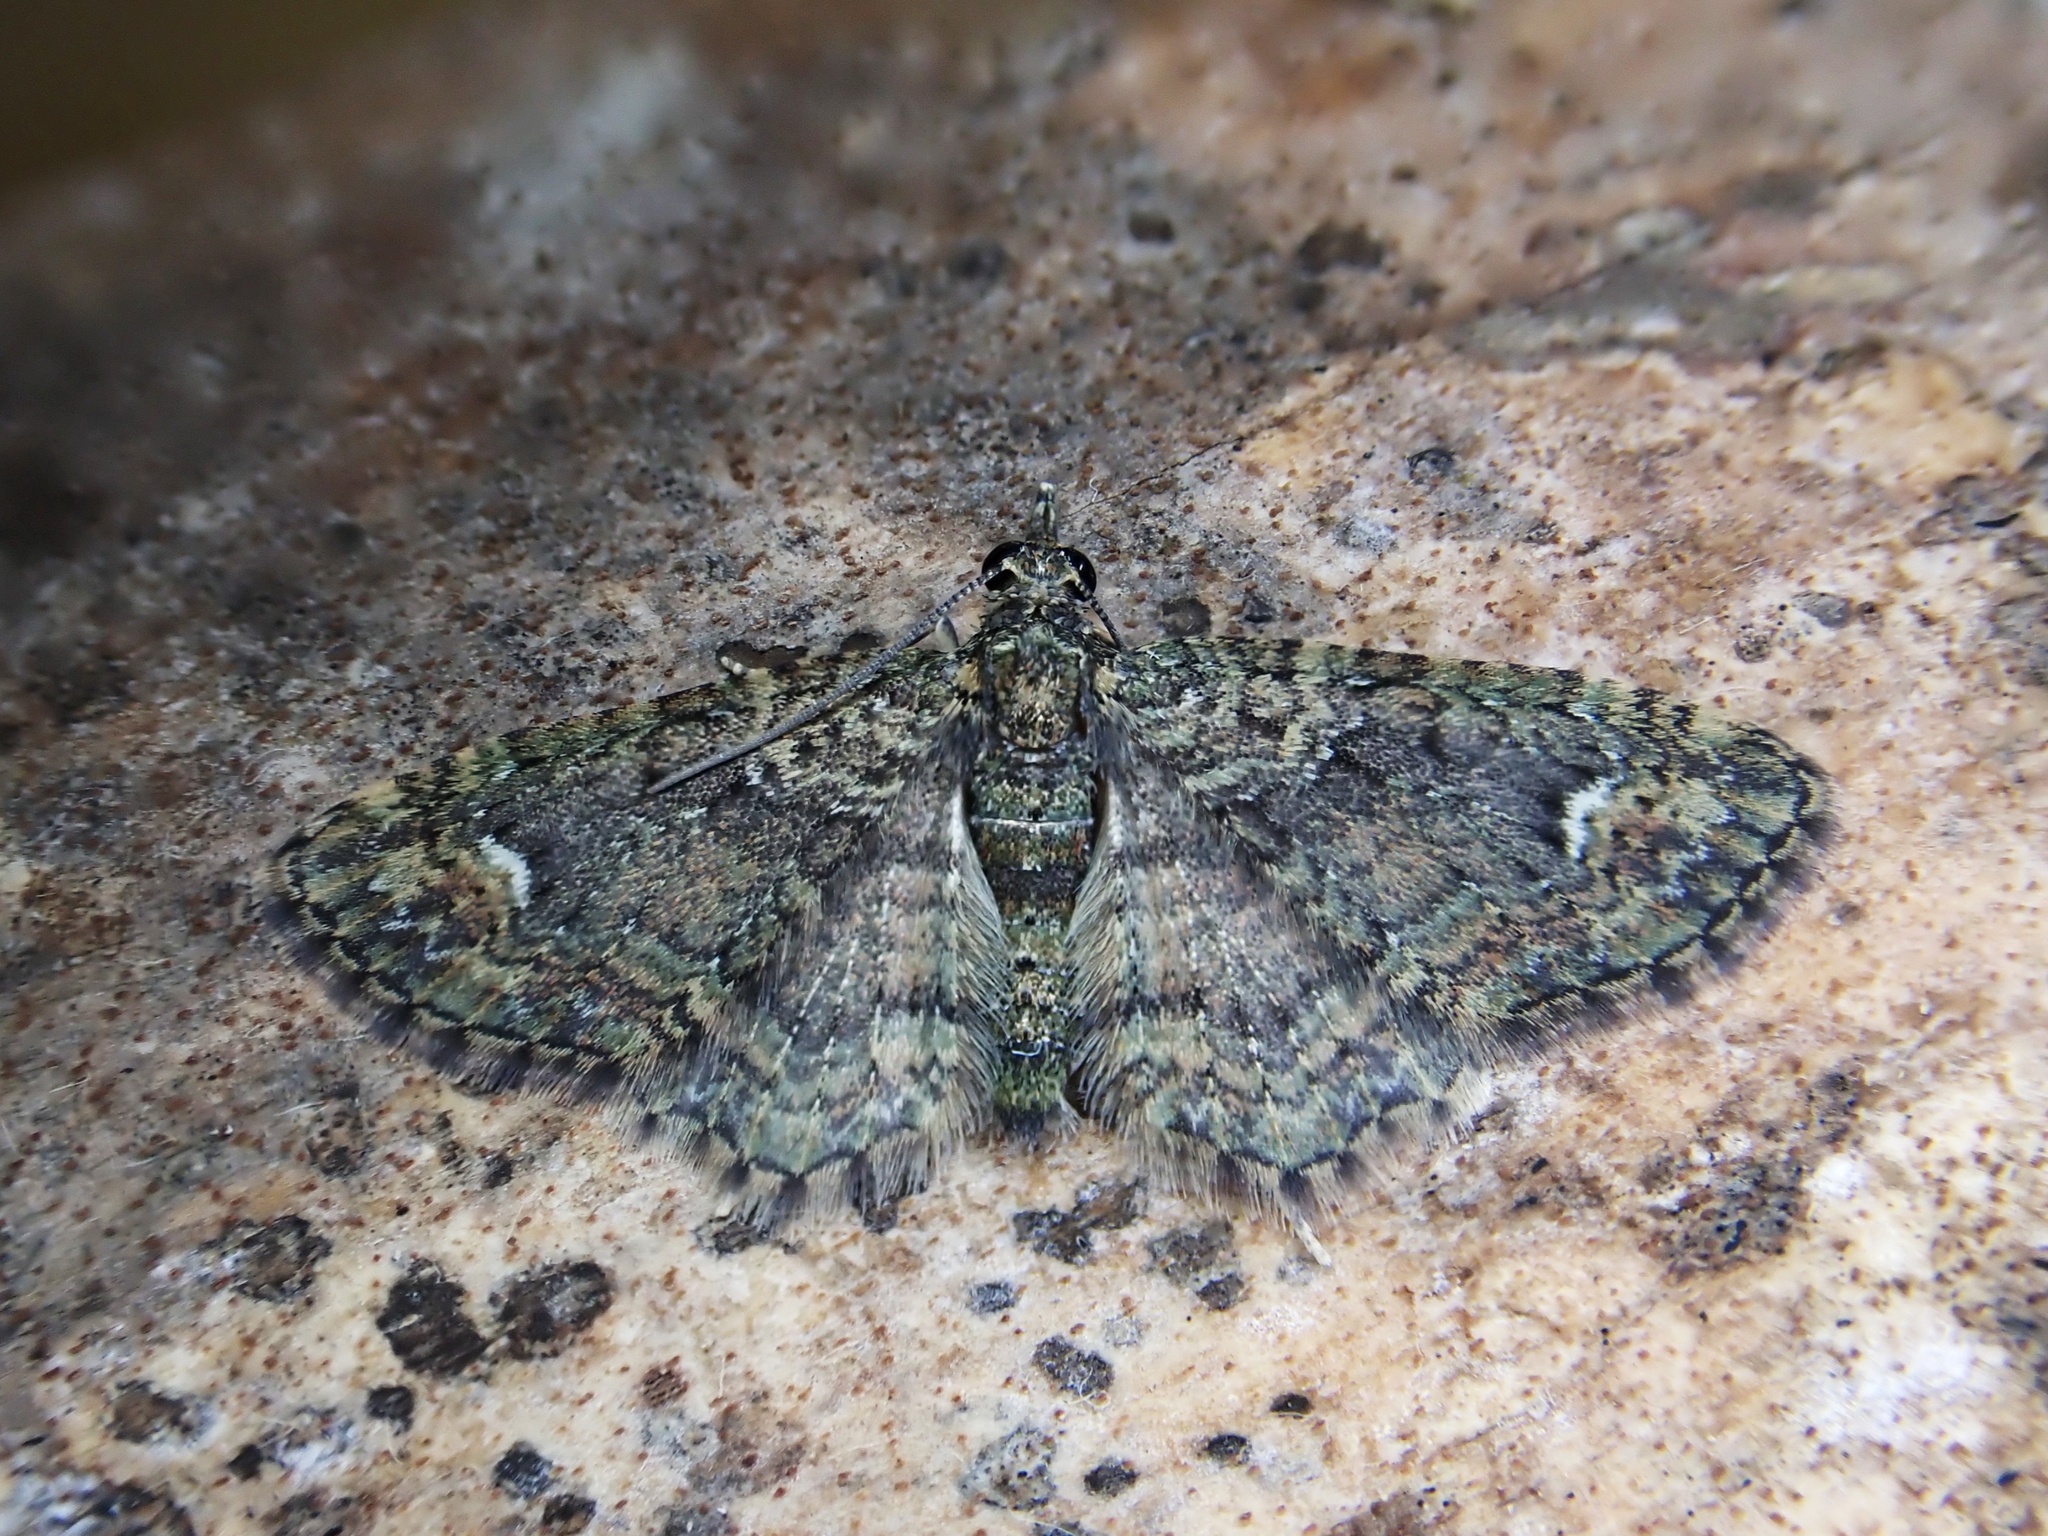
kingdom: Animalia
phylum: Arthropoda
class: Insecta
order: Lepidoptera
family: Geometridae
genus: Pasiphilodes
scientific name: Pasiphilodes testulata
